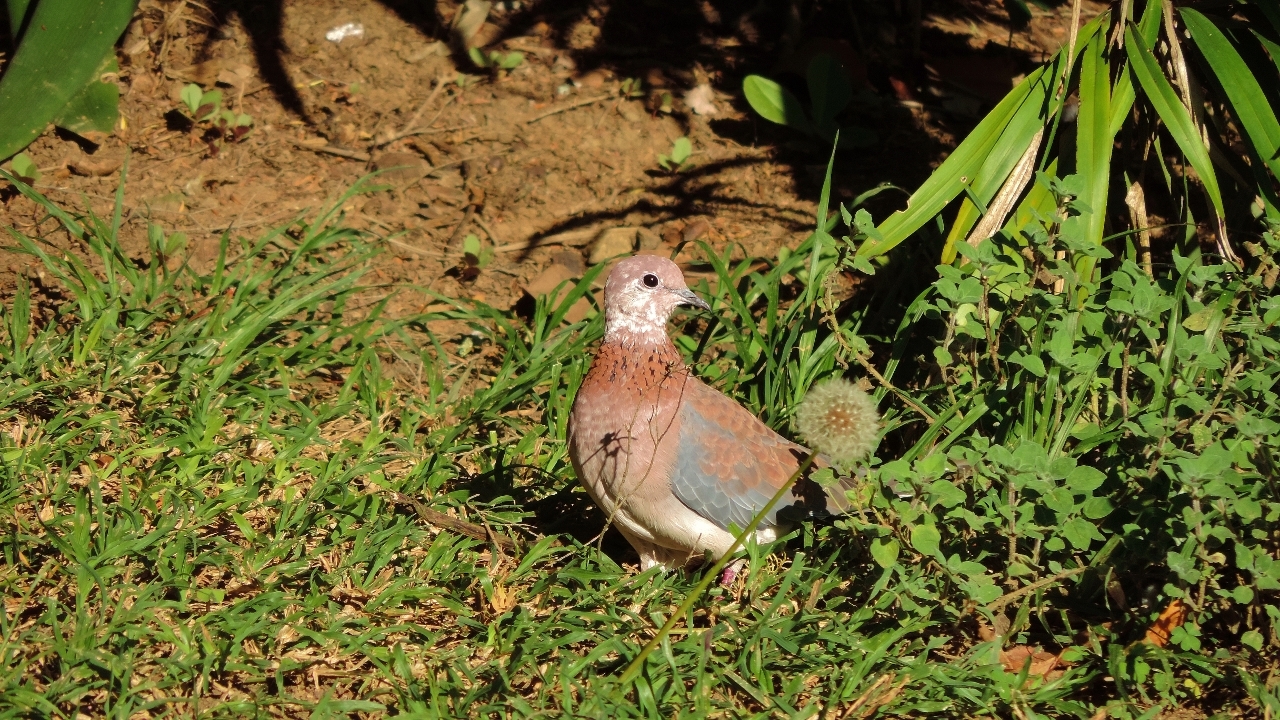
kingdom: Animalia
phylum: Chordata
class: Aves
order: Columbiformes
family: Columbidae
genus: Spilopelia
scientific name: Spilopelia senegalensis
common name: Laughing dove
